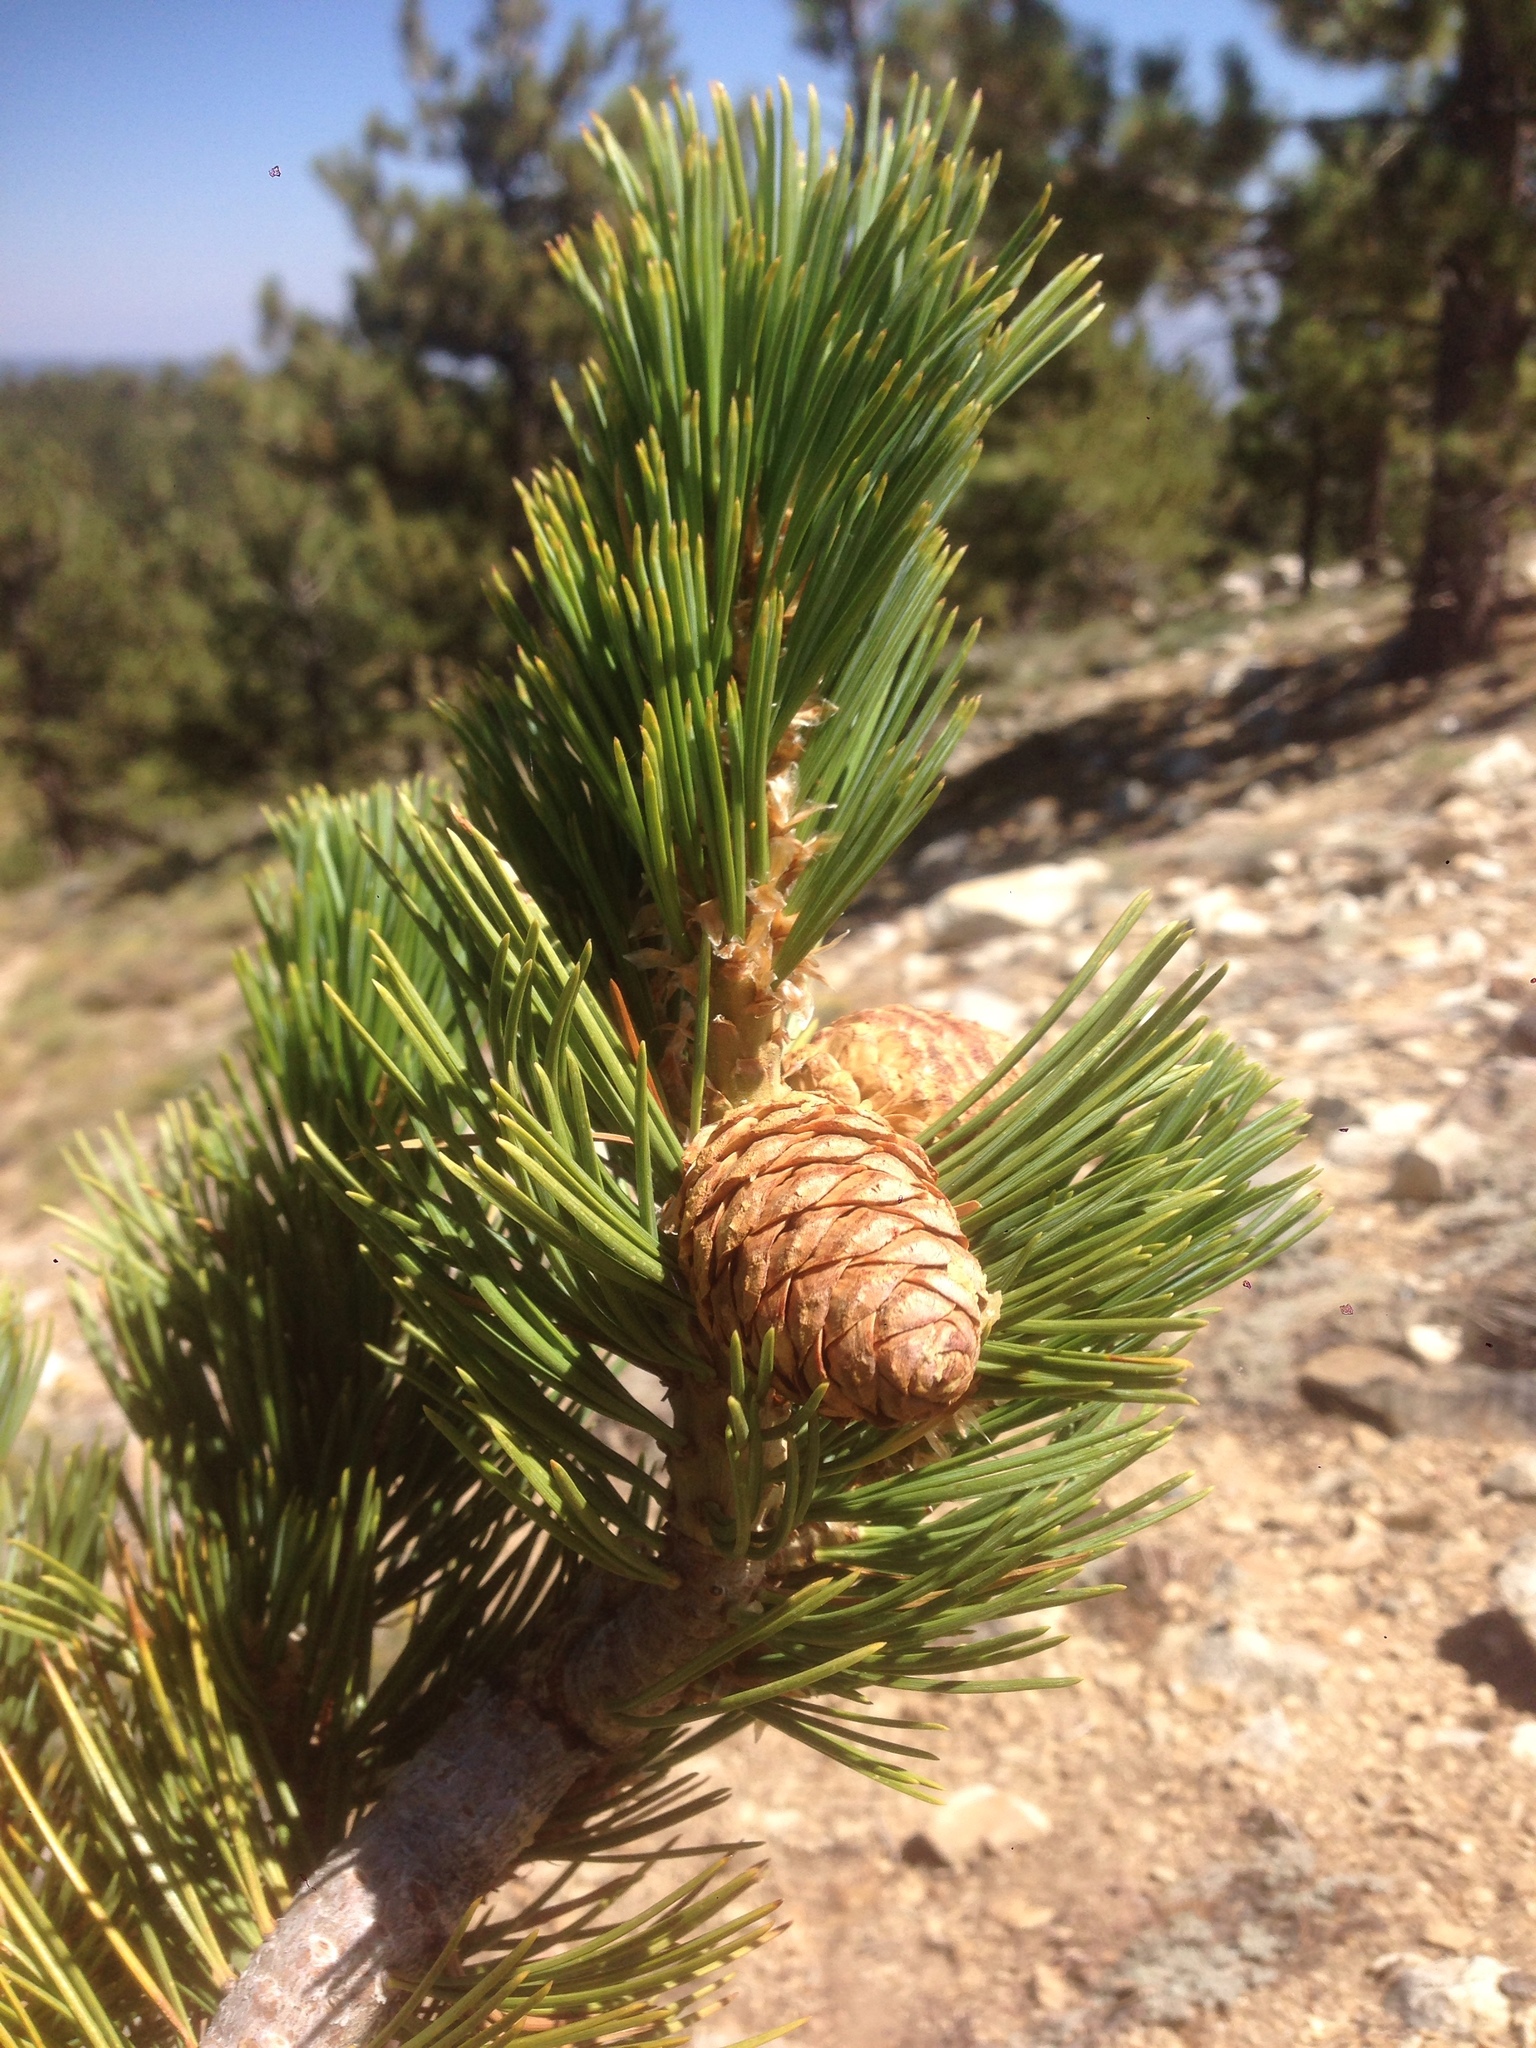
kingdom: Plantae
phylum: Tracheophyta
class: Pinopsida
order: Pinales
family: Pinaceae
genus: Pinus
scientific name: Pinus flexilis
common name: Limber pine
